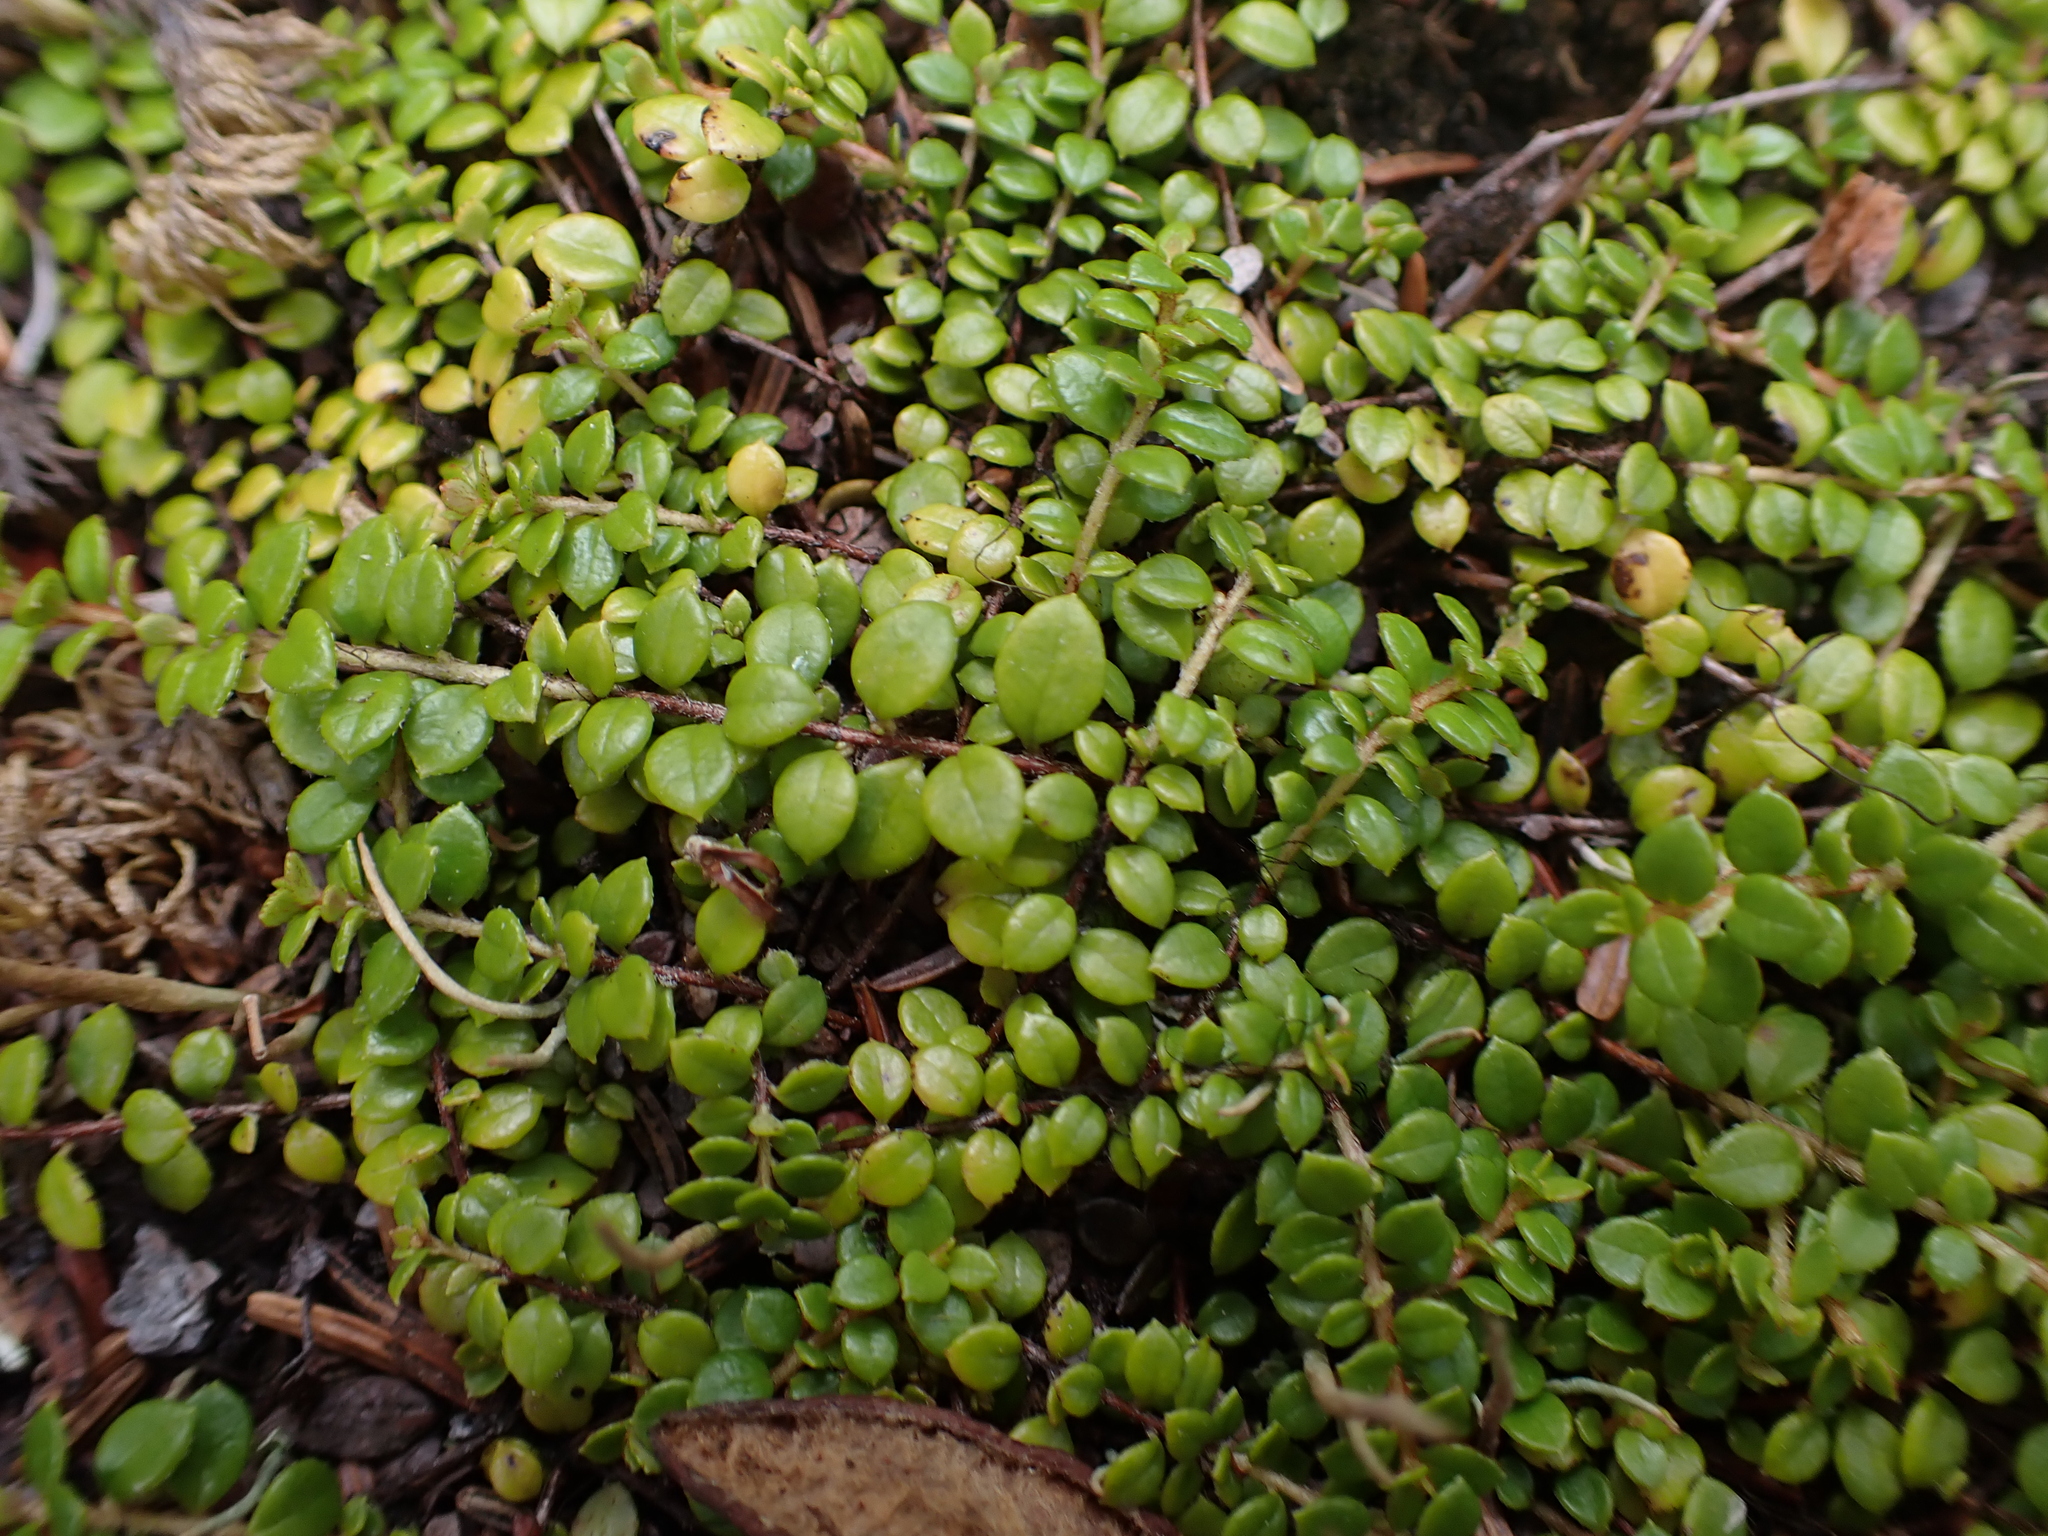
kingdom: Plantae
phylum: Tracheophyta
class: Magnoliopsida
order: Ericales
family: Ericaceae
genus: Gaultheria
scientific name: Gaultheria hispidula
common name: Cancer wintergreen
